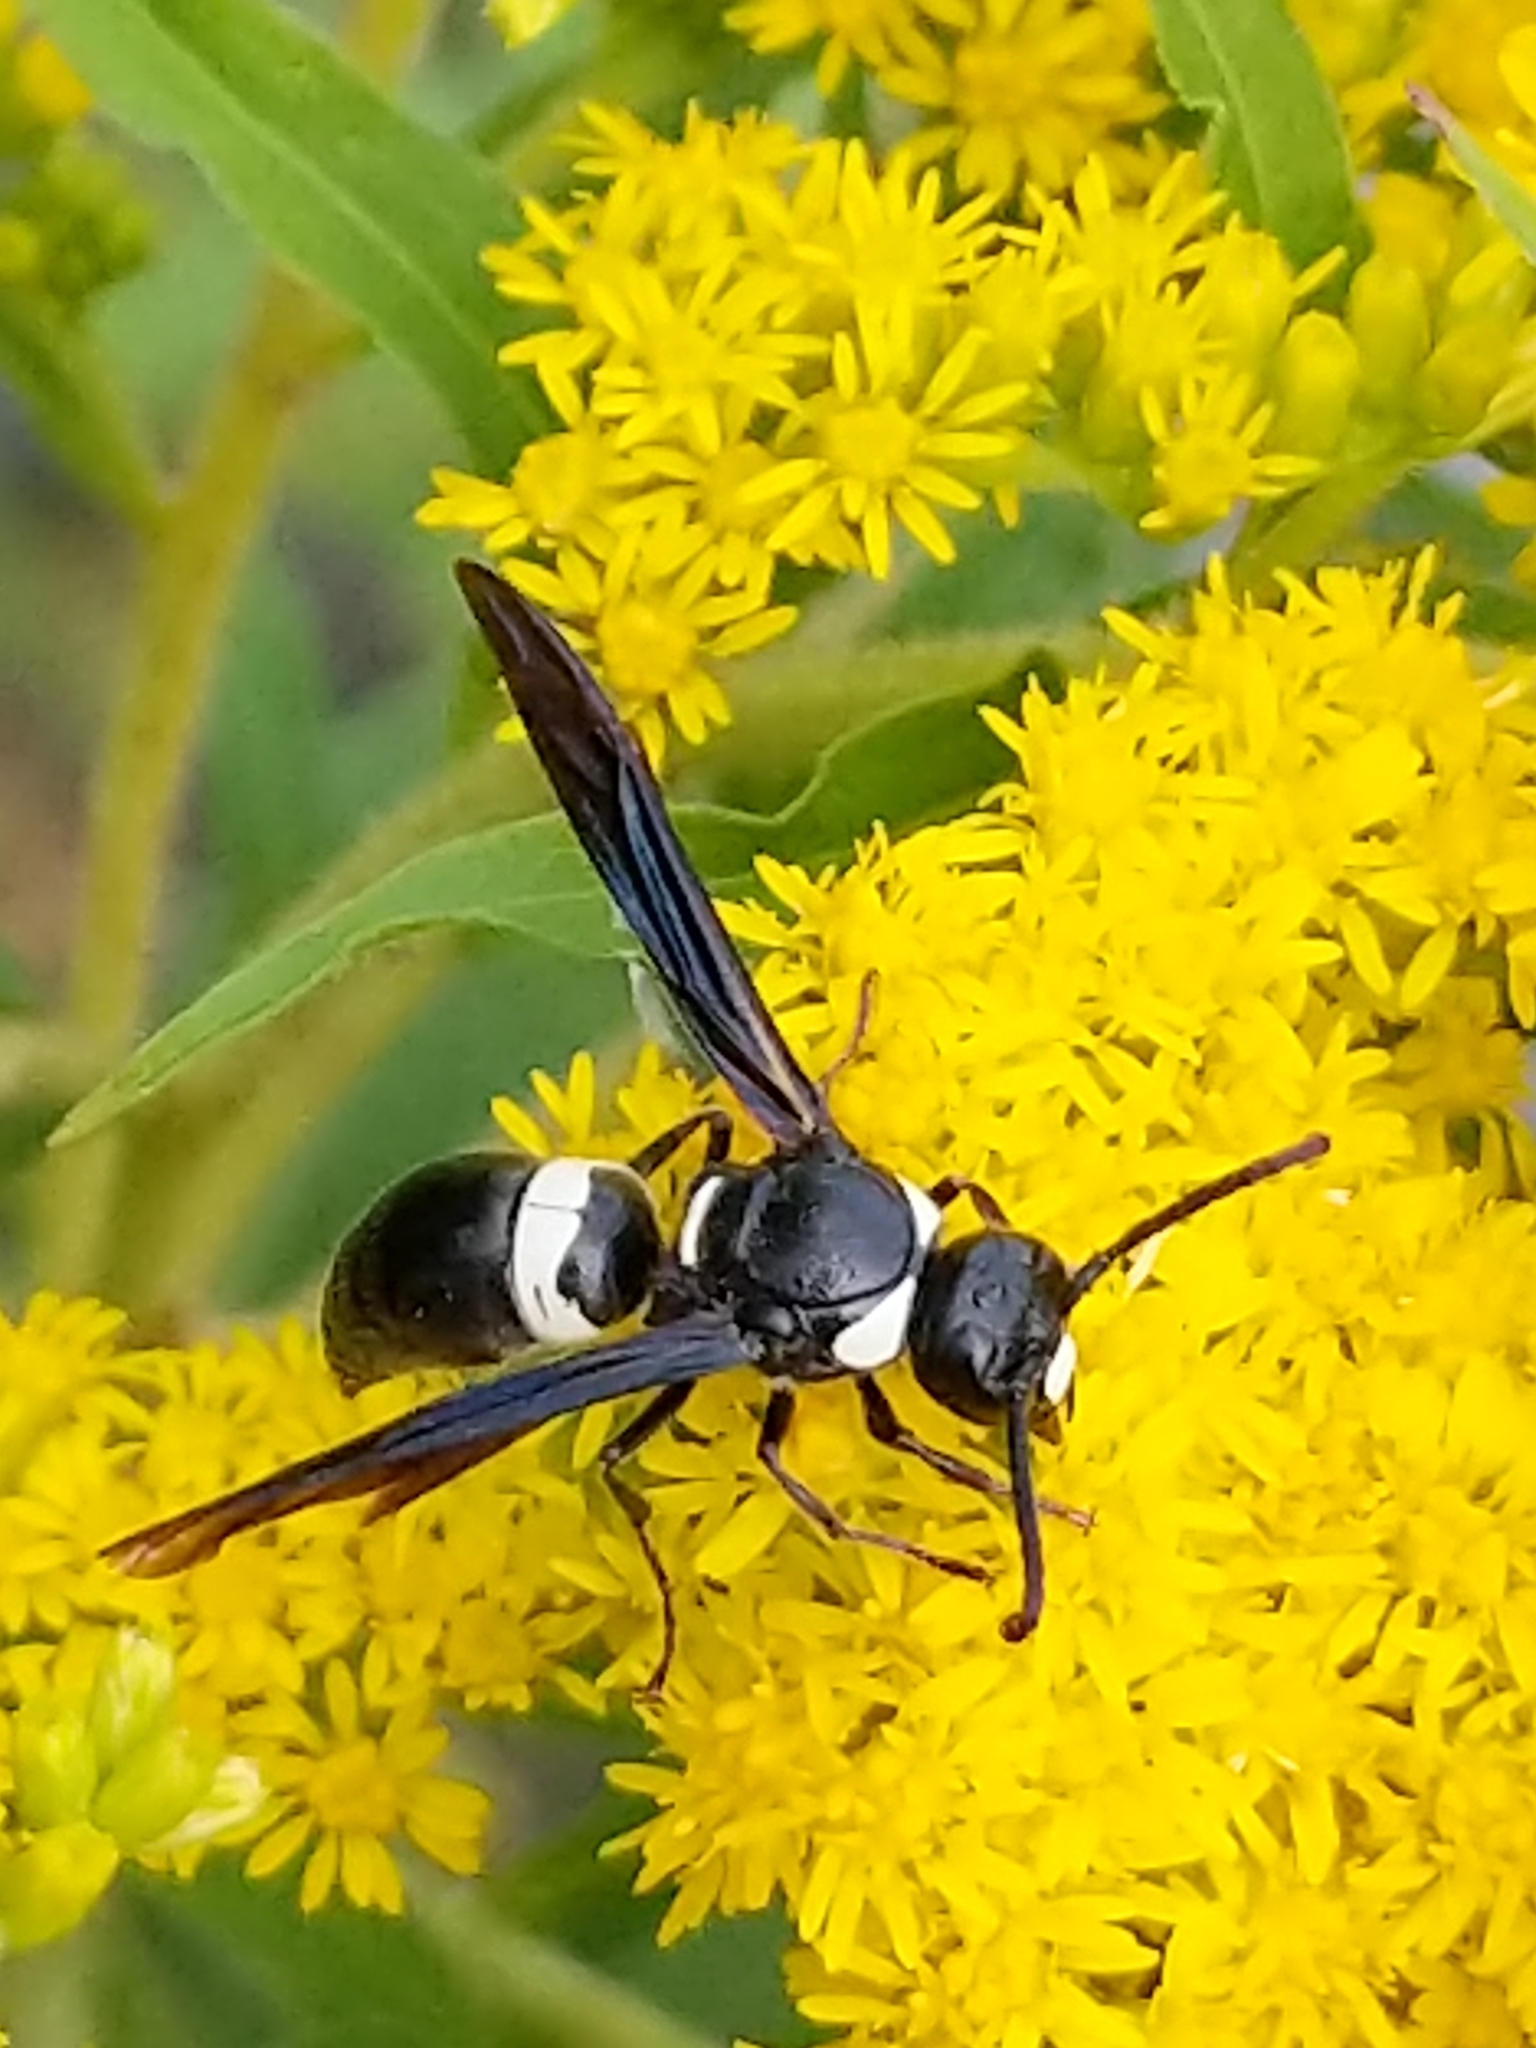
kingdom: Animalia
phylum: Arthropoda
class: Insecta
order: Hymenoptera
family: Eumenidae
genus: Monobia
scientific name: Monobia quadridens
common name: Four-toothed mason wasp
